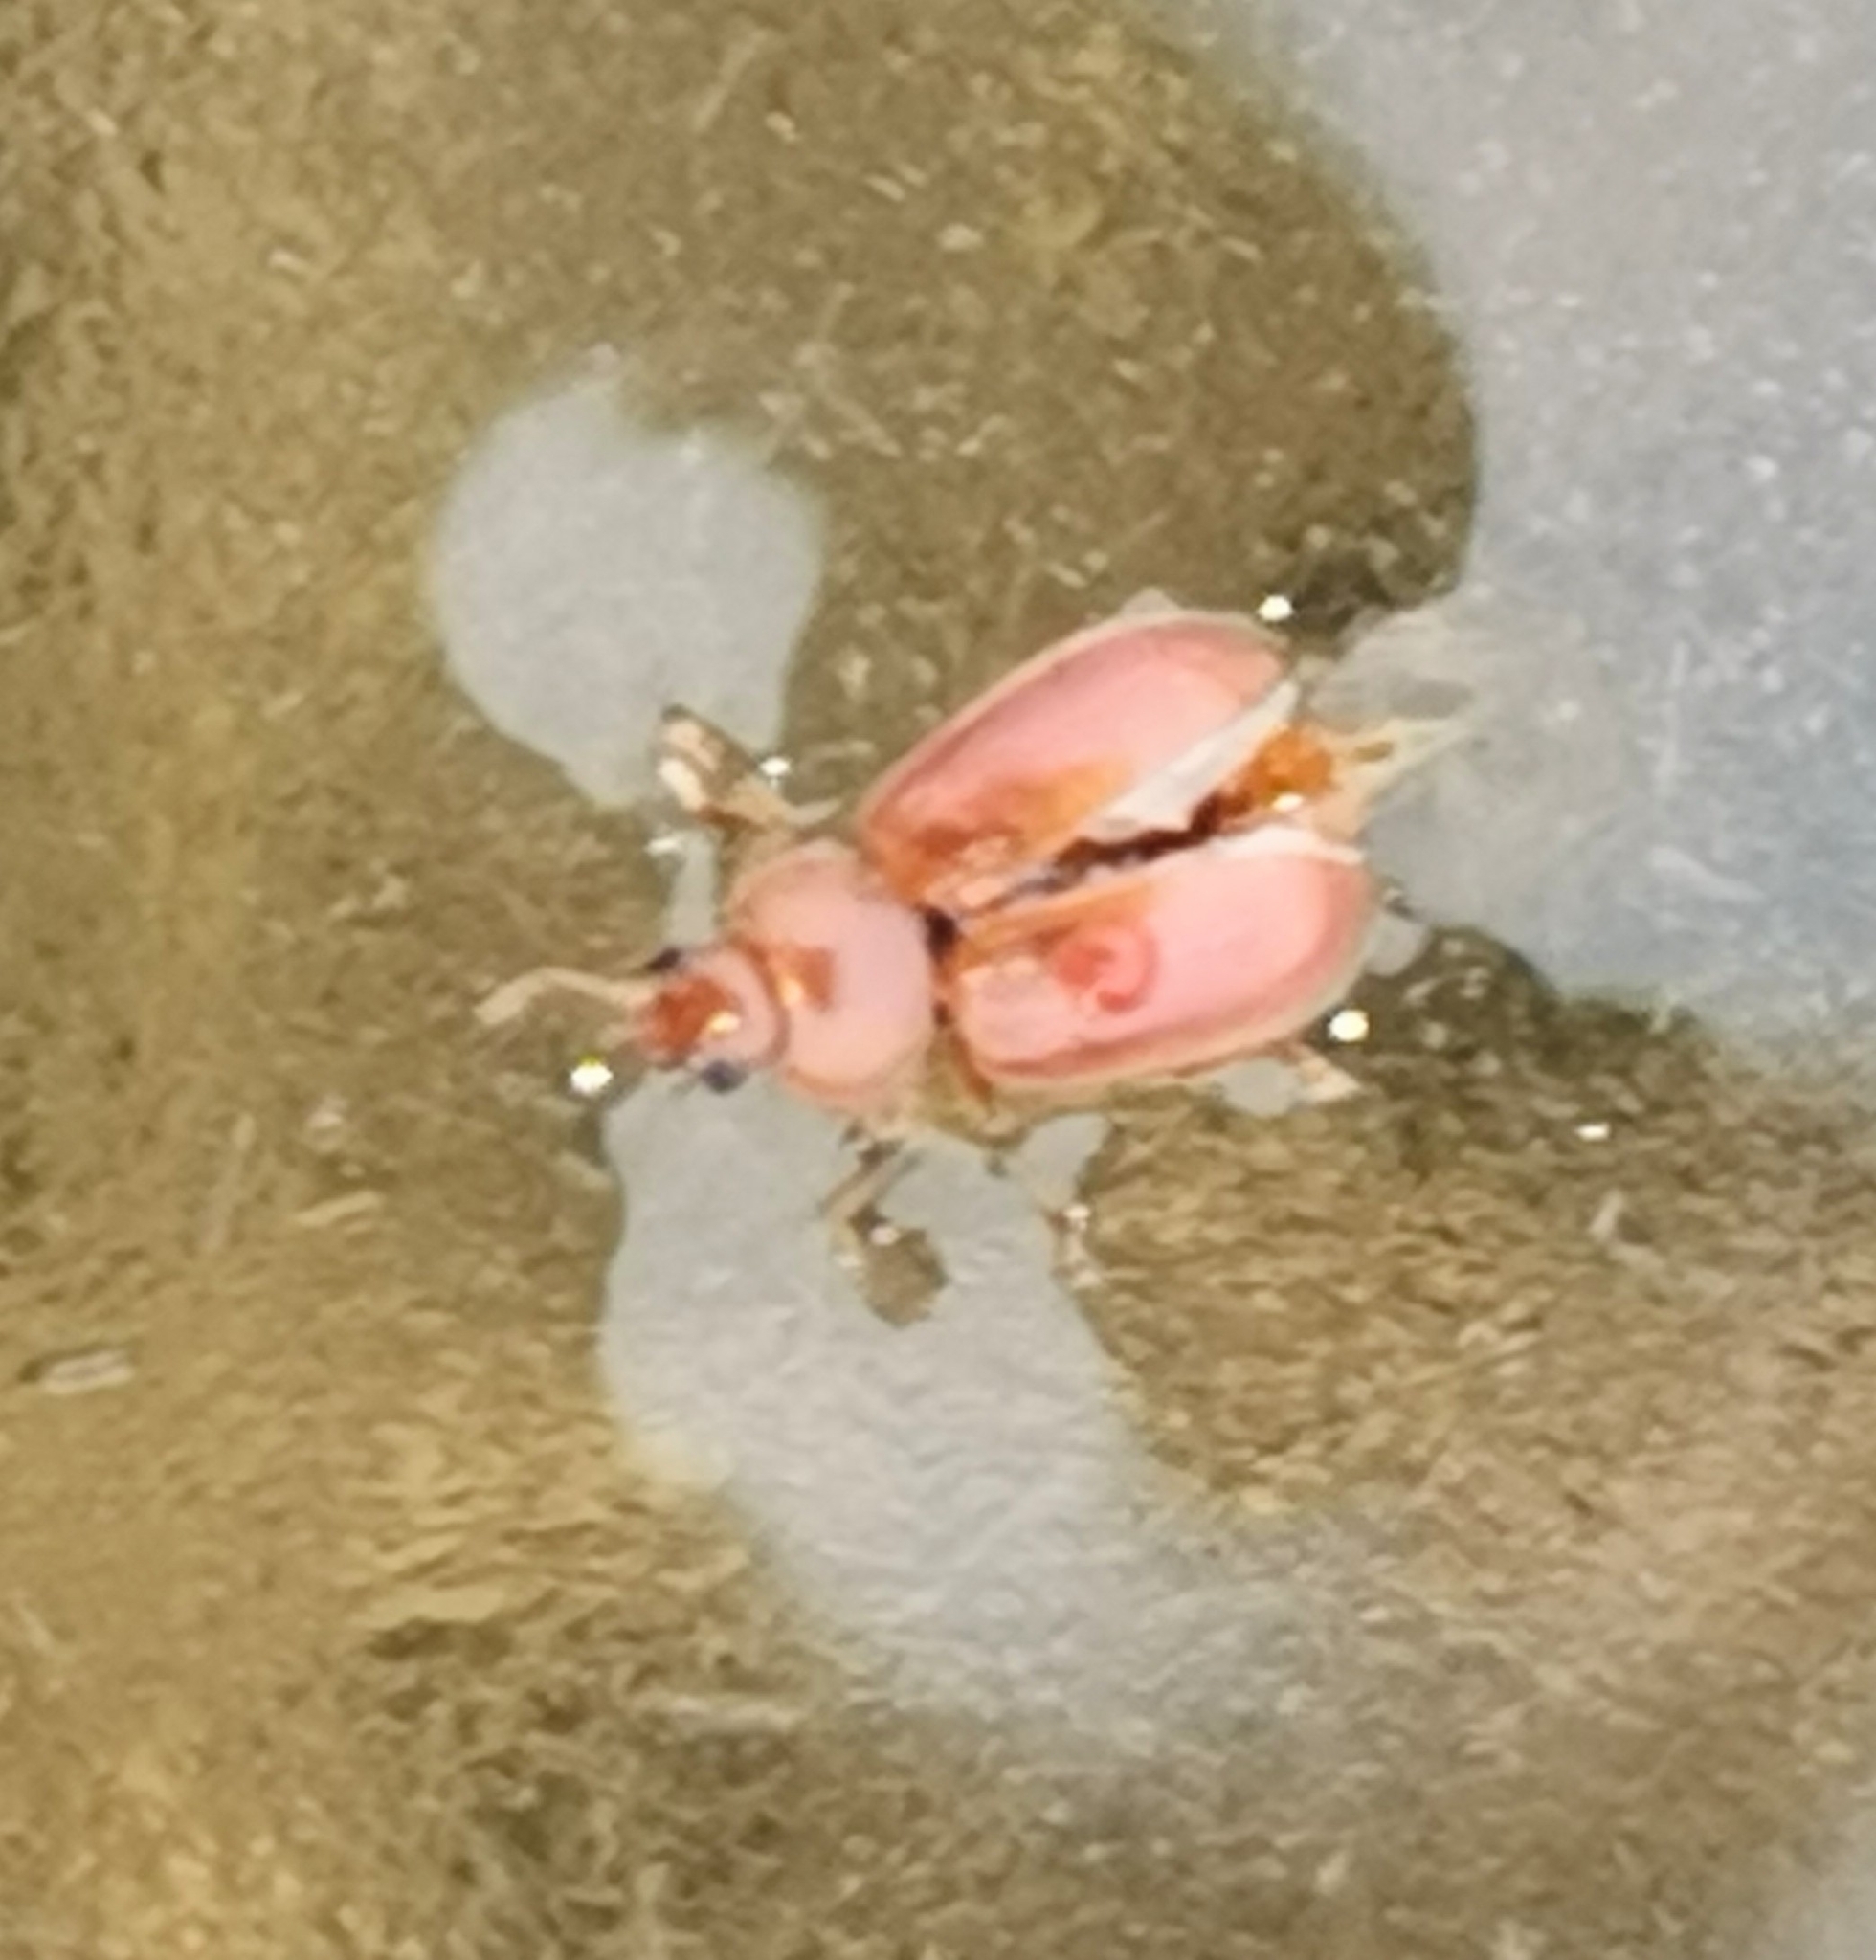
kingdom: Animalia
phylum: Arthropoda
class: Insecta
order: Coleoptera
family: Coccinellidae
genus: Coccidula
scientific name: Coccidula rufa
